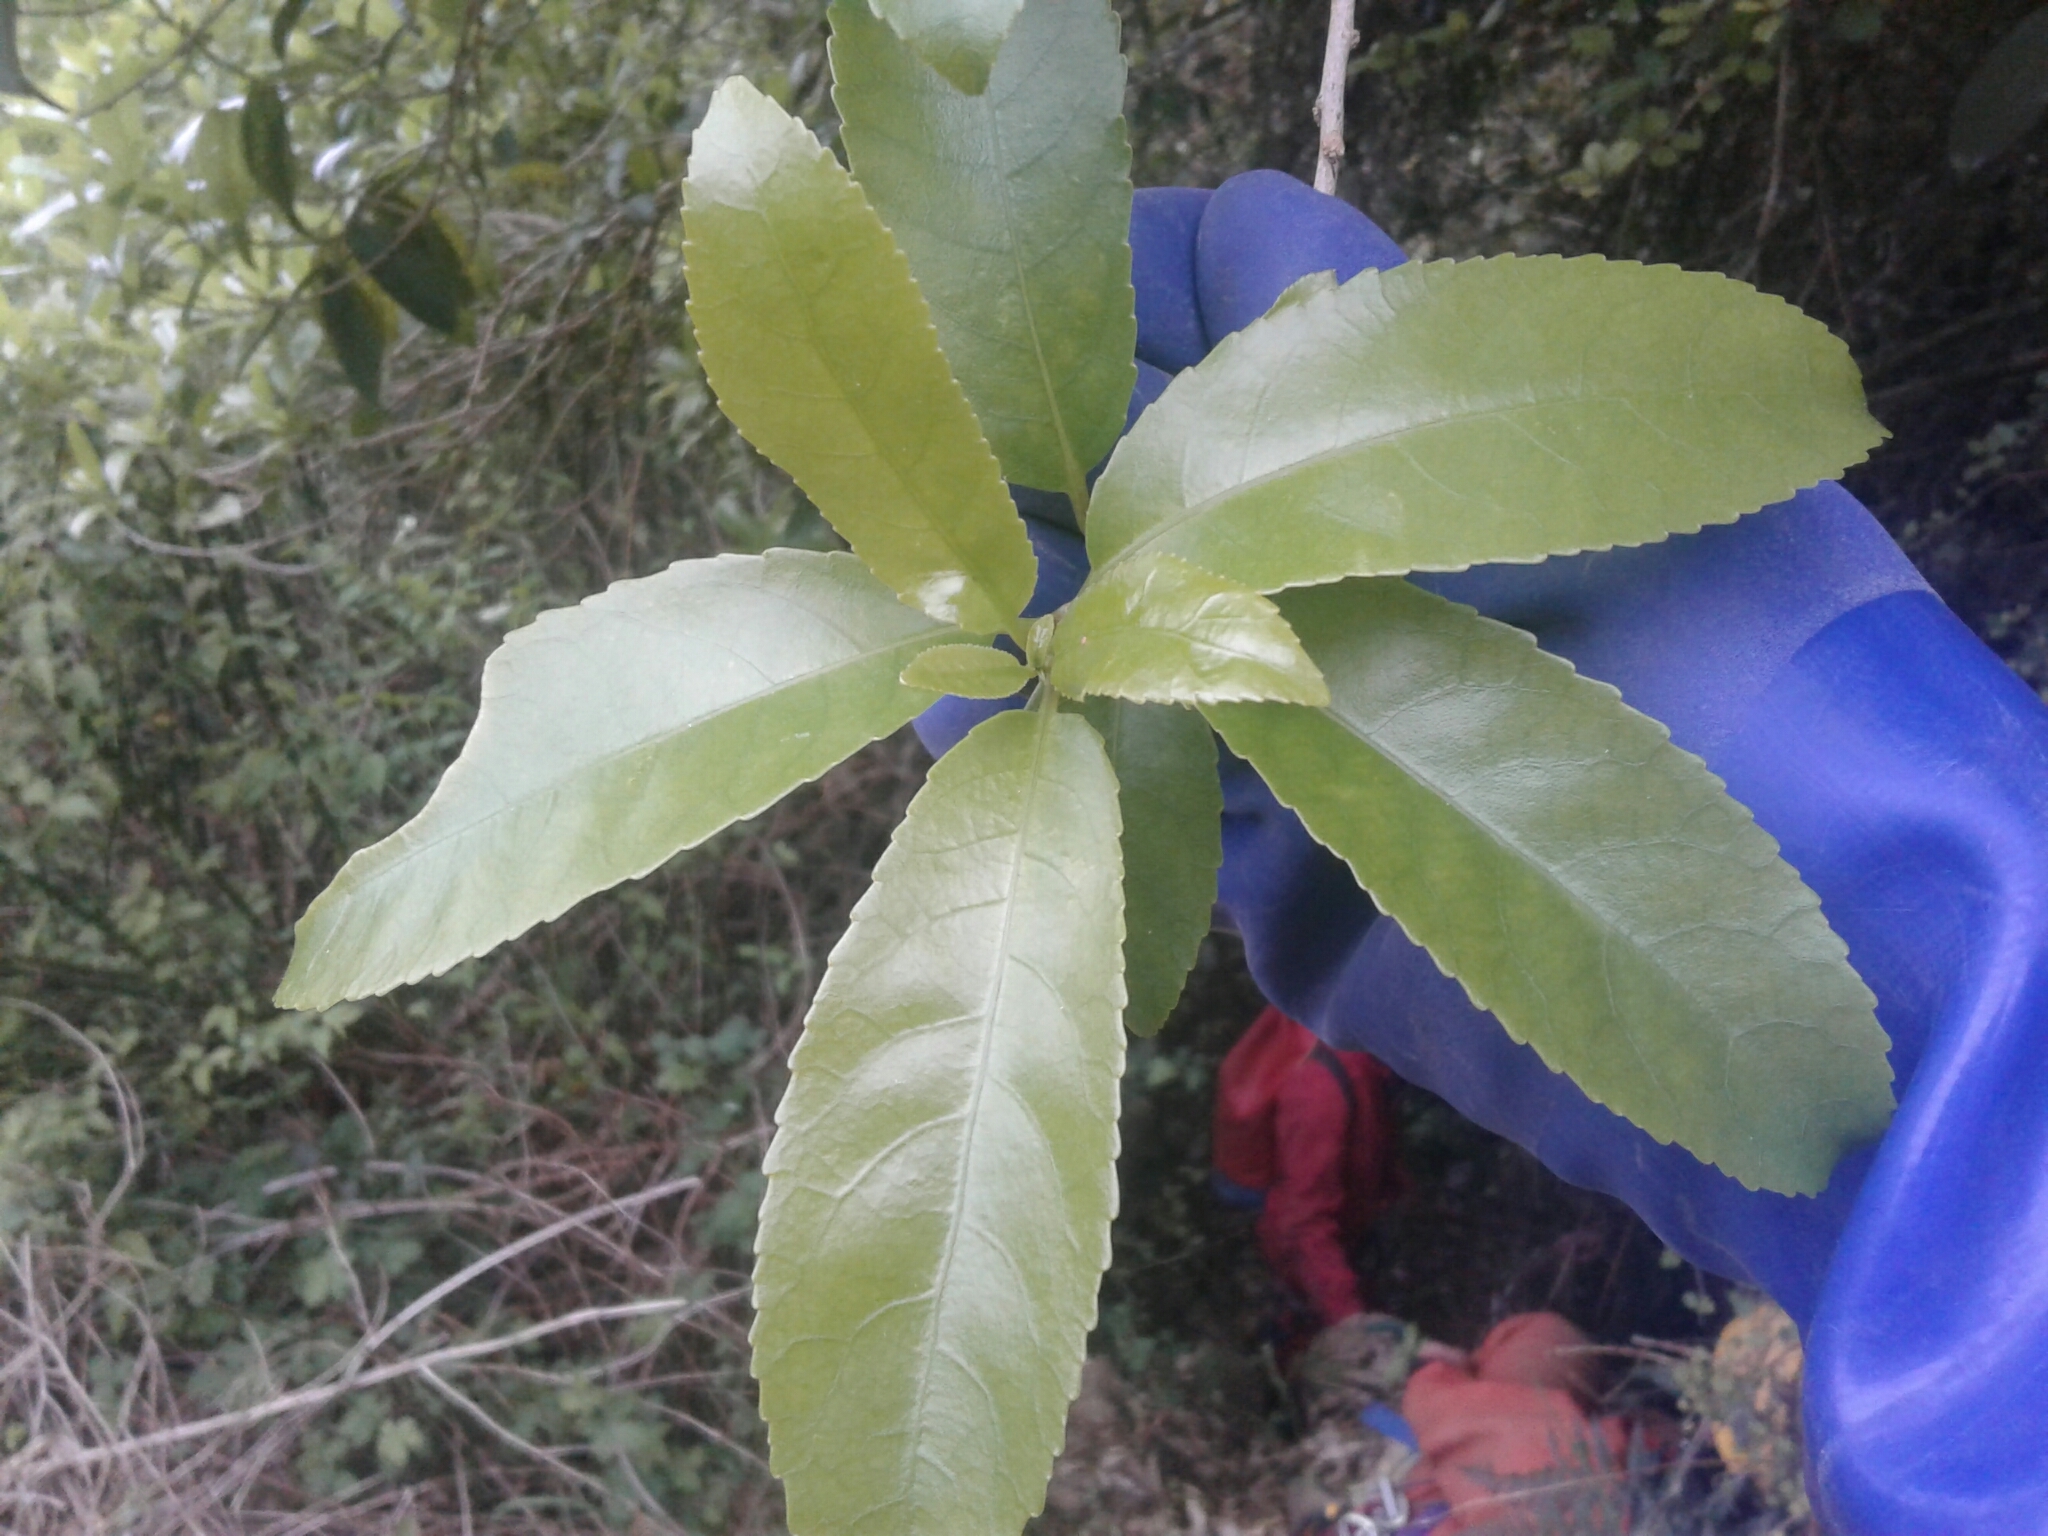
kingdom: Plantae
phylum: Tracheophyta
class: Magnoliopsida
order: Malpighiales
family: Violaceae
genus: Melicytus
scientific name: Melicytus ramiflorus
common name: Mahoe
